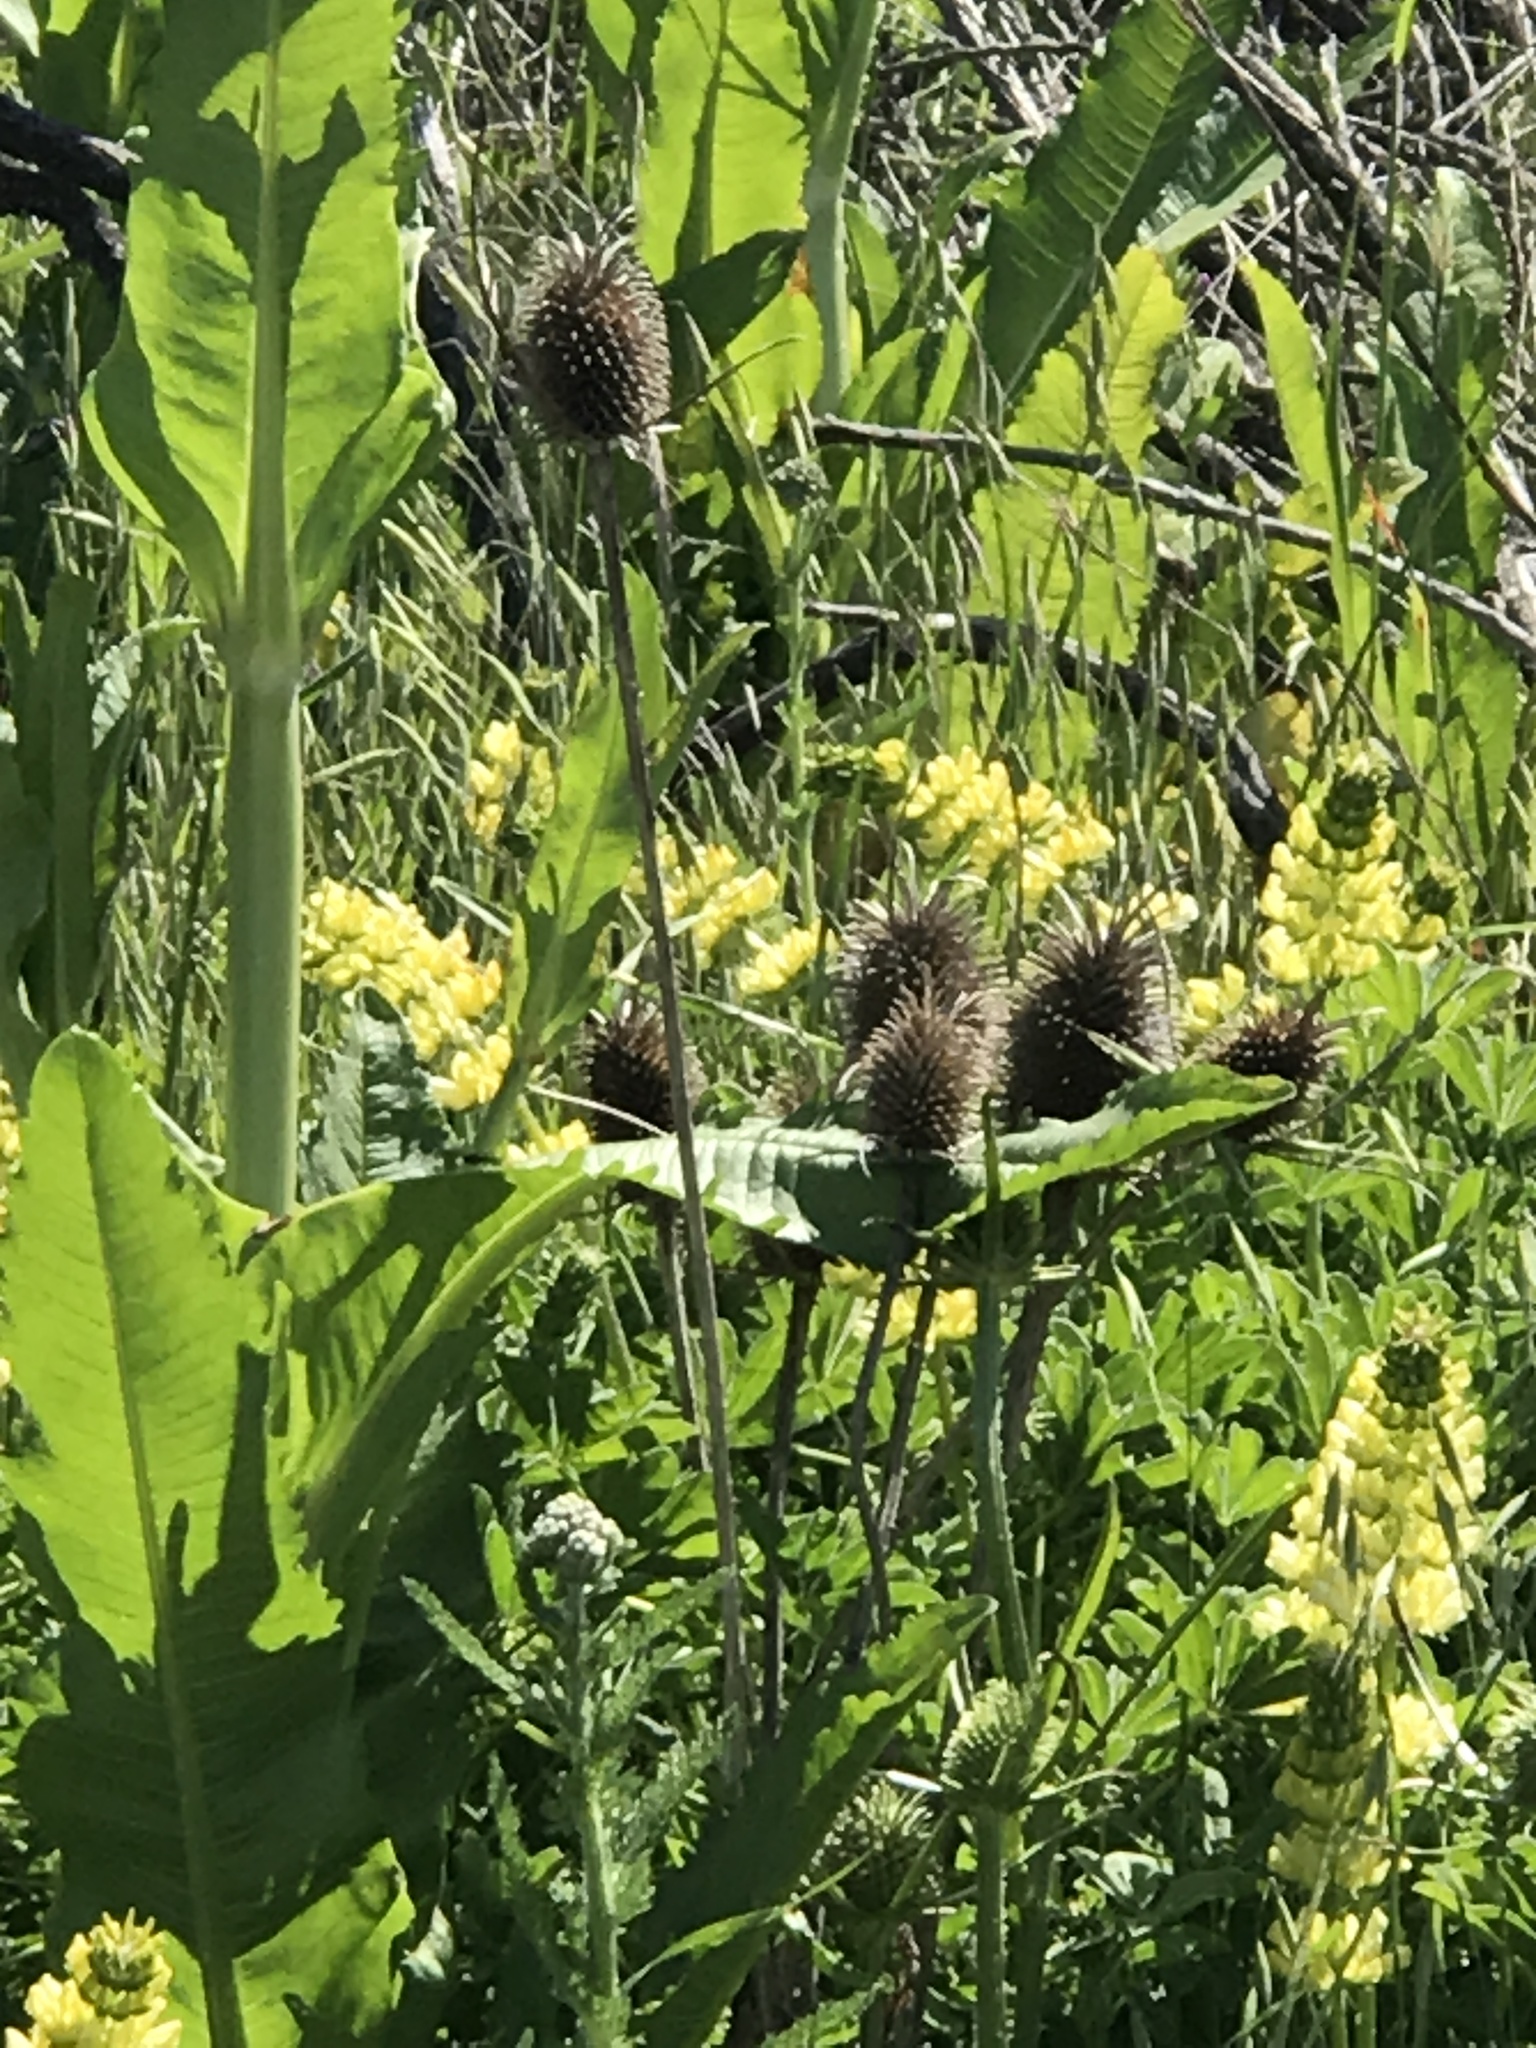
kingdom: Plantae
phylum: Tracheophyta
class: Magnoliopsida
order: Dipsacales
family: Caprifoliaceae
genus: Dipsacus
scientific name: Dipsacus sativus
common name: Fuller's teasel
